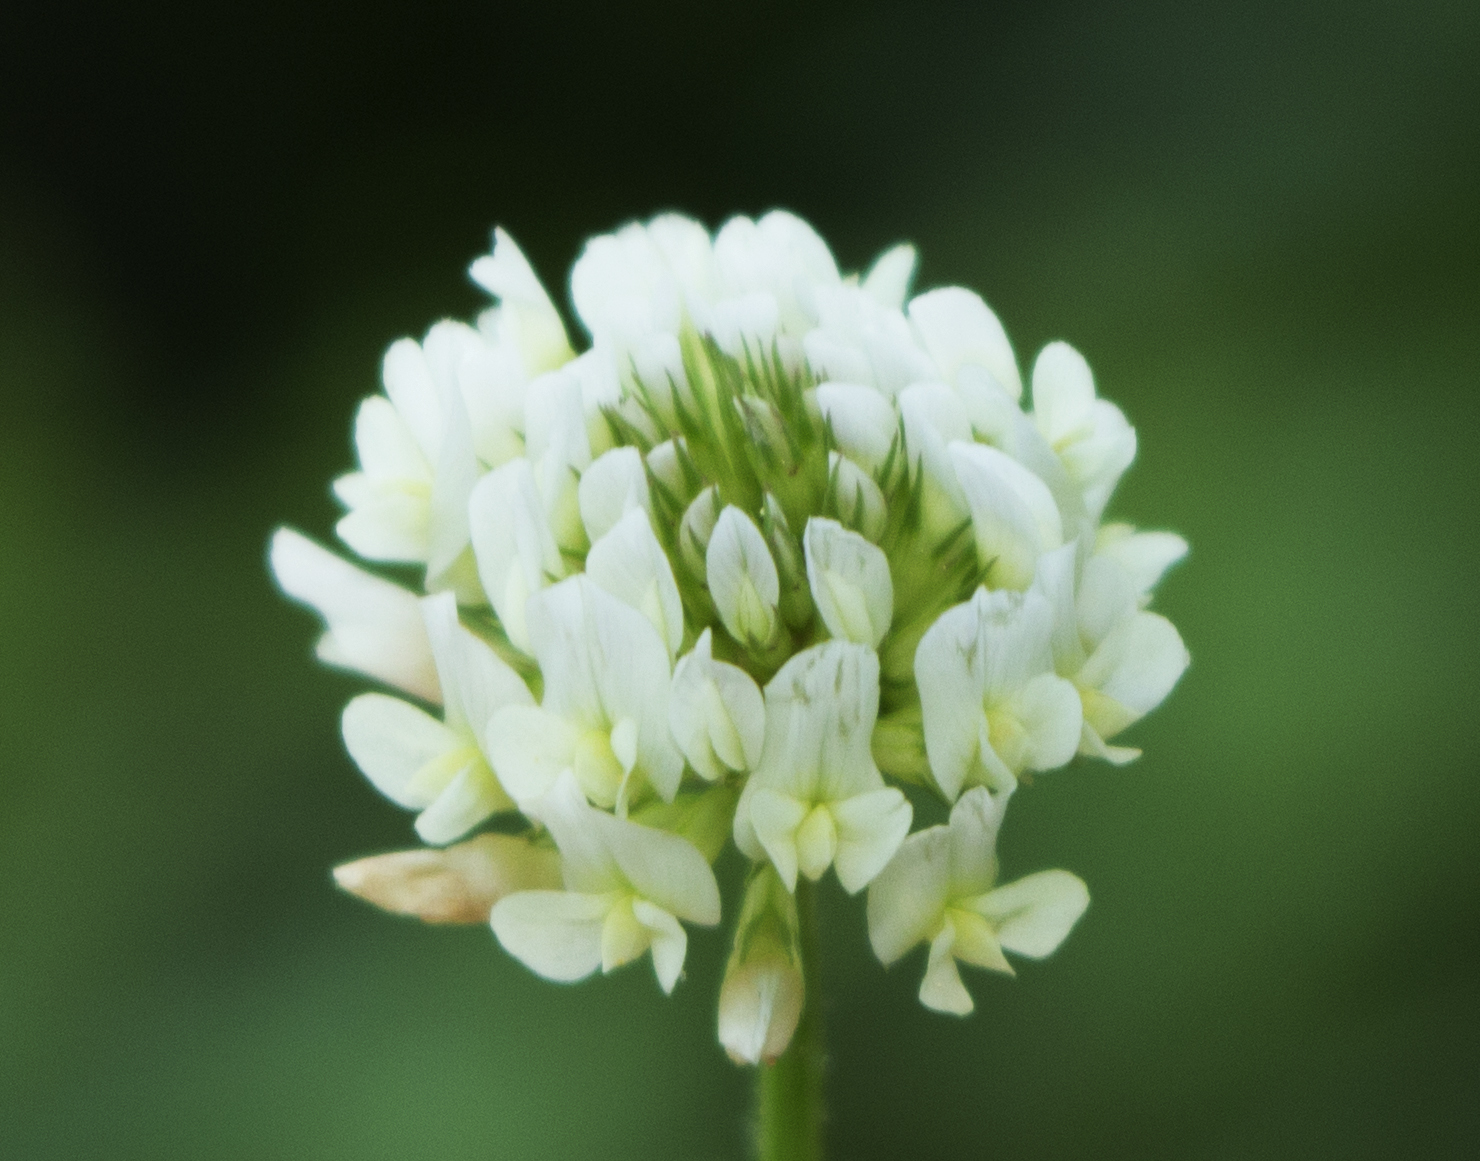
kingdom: Plantae
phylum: Tracheophyta
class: Magnoliopsida
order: Fabales
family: Fabaceae
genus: Trifolium
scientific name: Trifolium repens
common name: White clover
